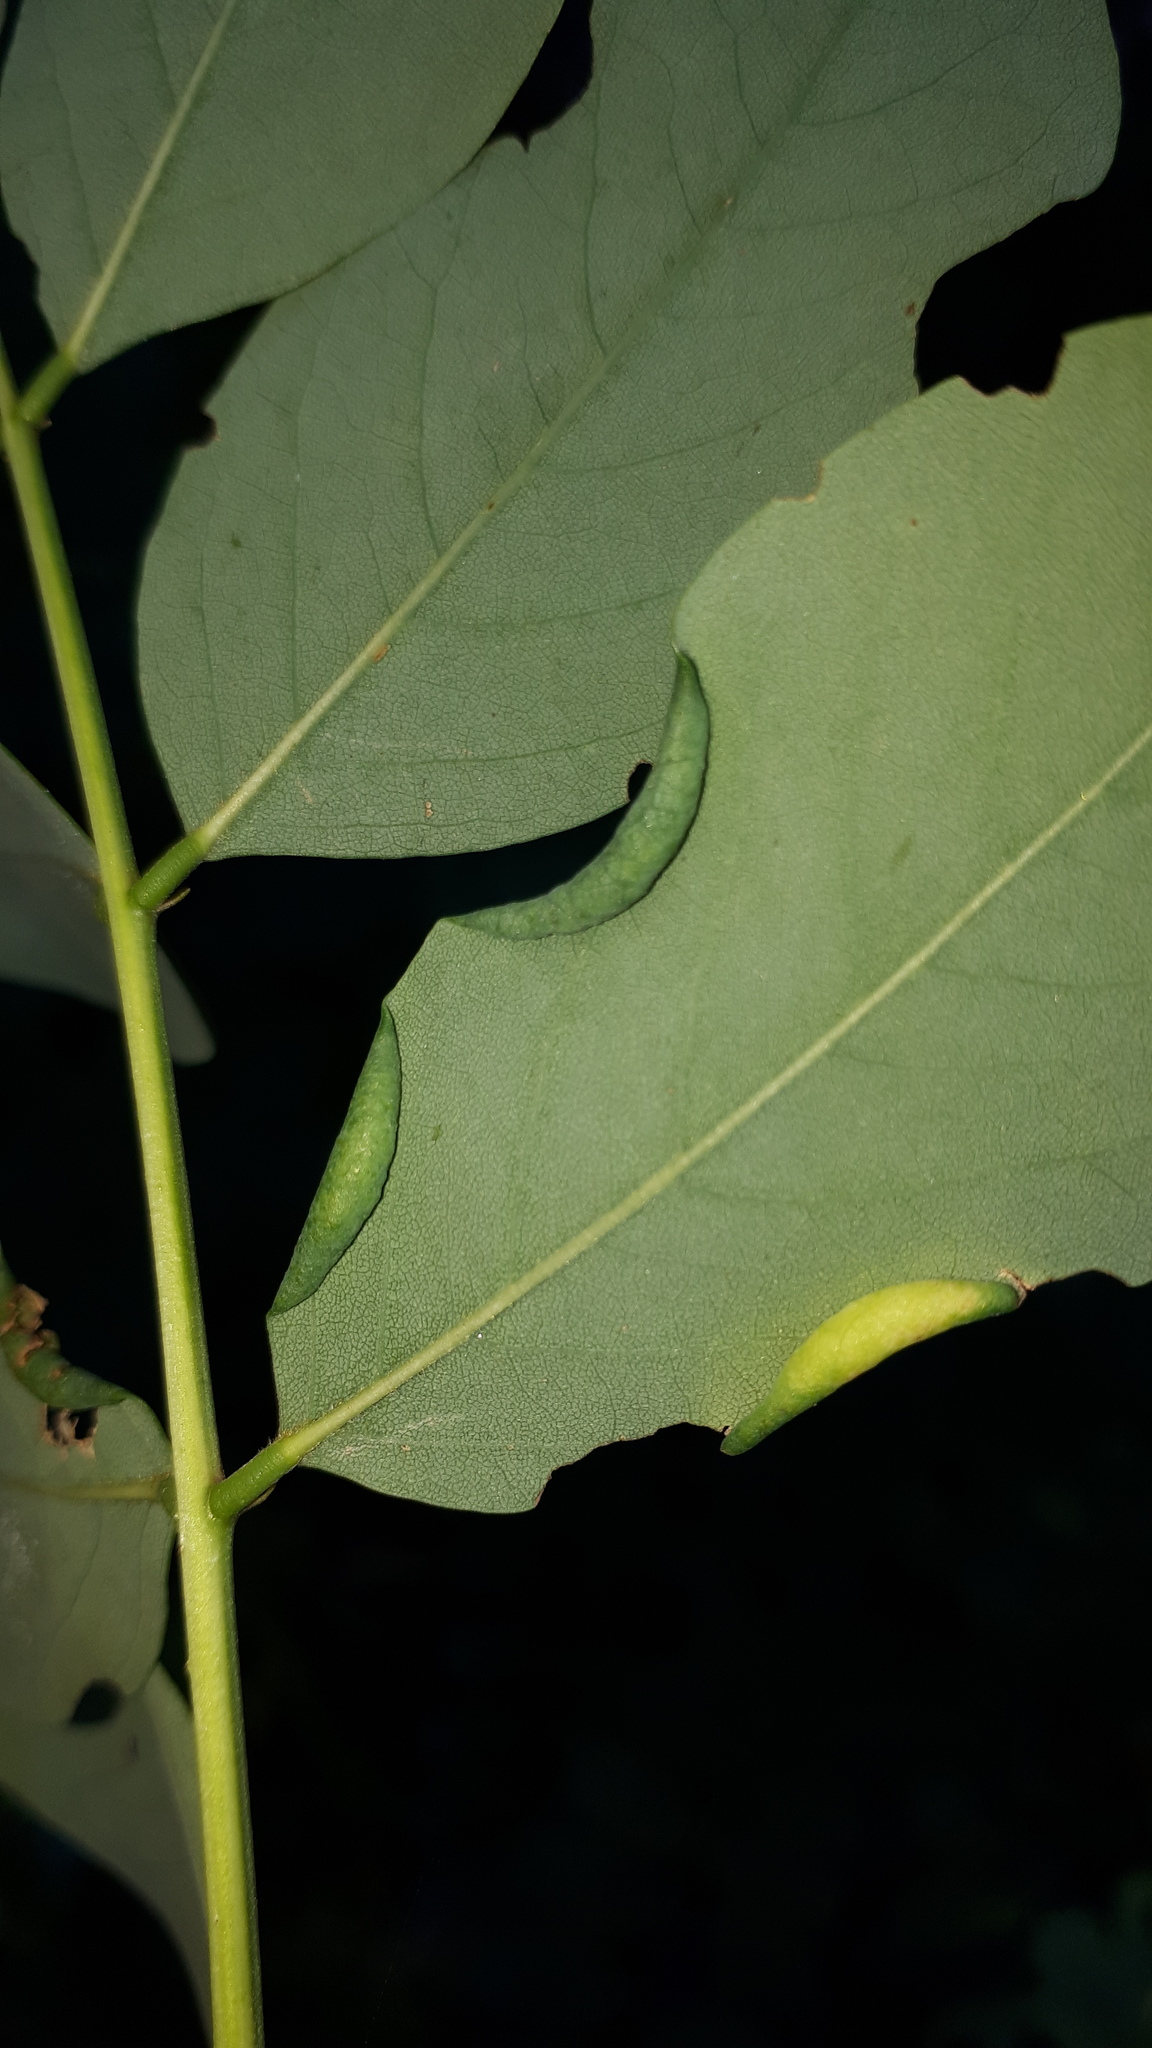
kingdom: Animalia
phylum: Arthropoda
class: Insecta
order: Diptera
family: Cecidomyiidae
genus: Obolodiplosis
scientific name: Obolodiplosis robiniae
